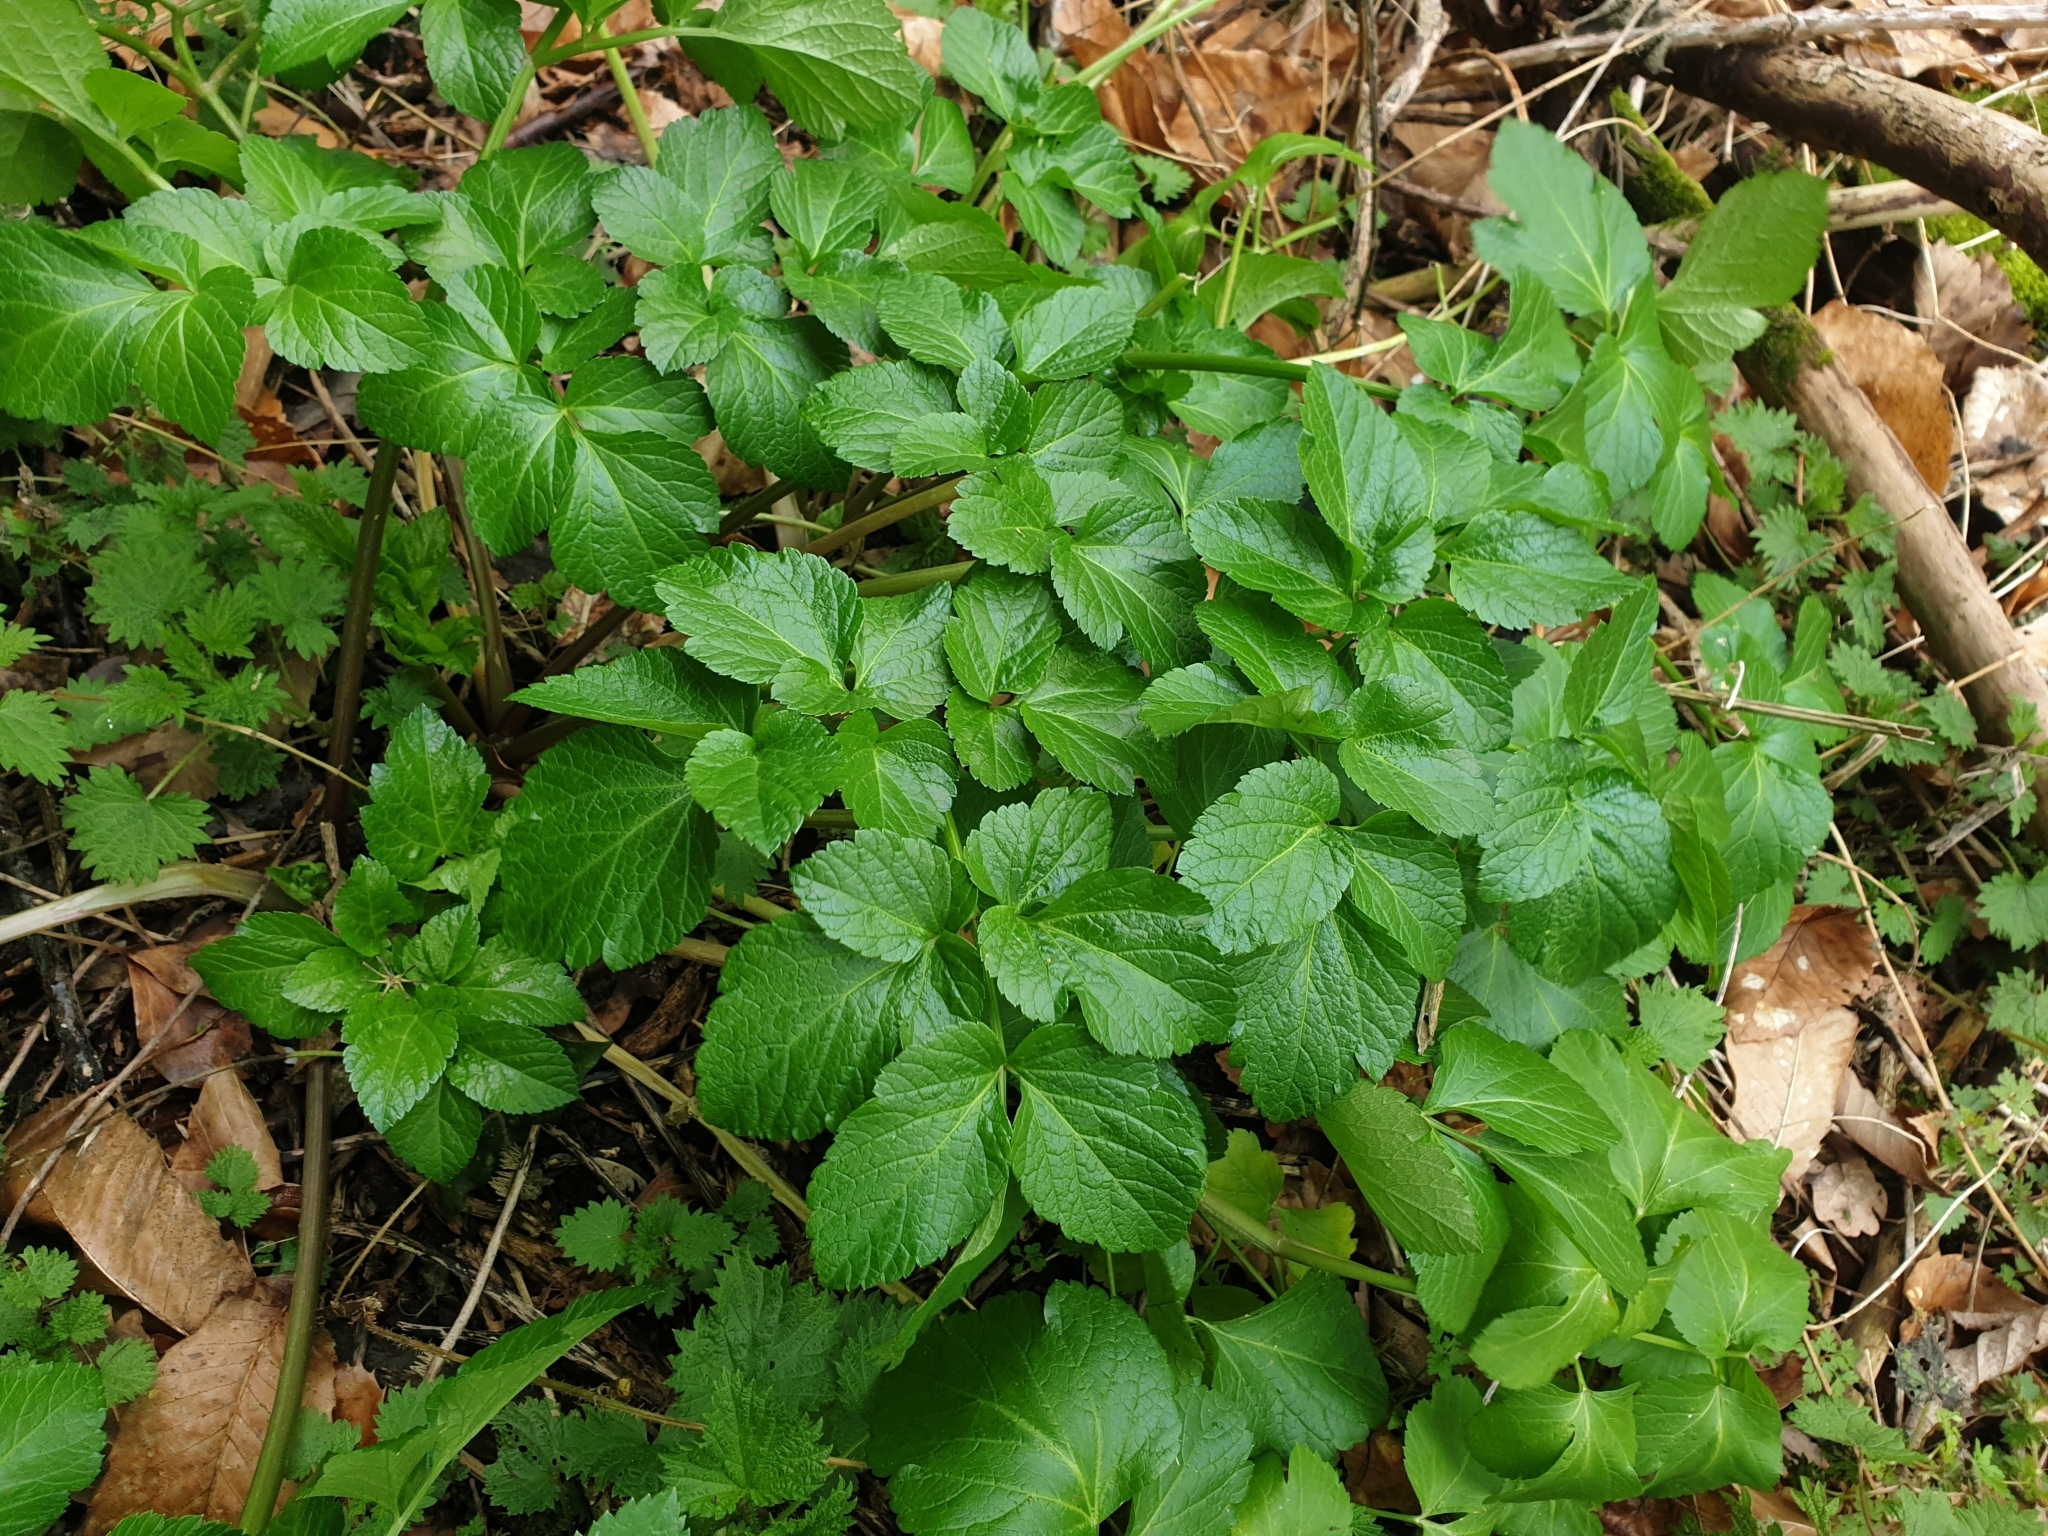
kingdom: Plantae
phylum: Tracheophyta
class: Magnoliopsida
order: Apiales
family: Apiaceae
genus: Smyrnium
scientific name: Smyrnium olusatrum
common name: Alexanders
